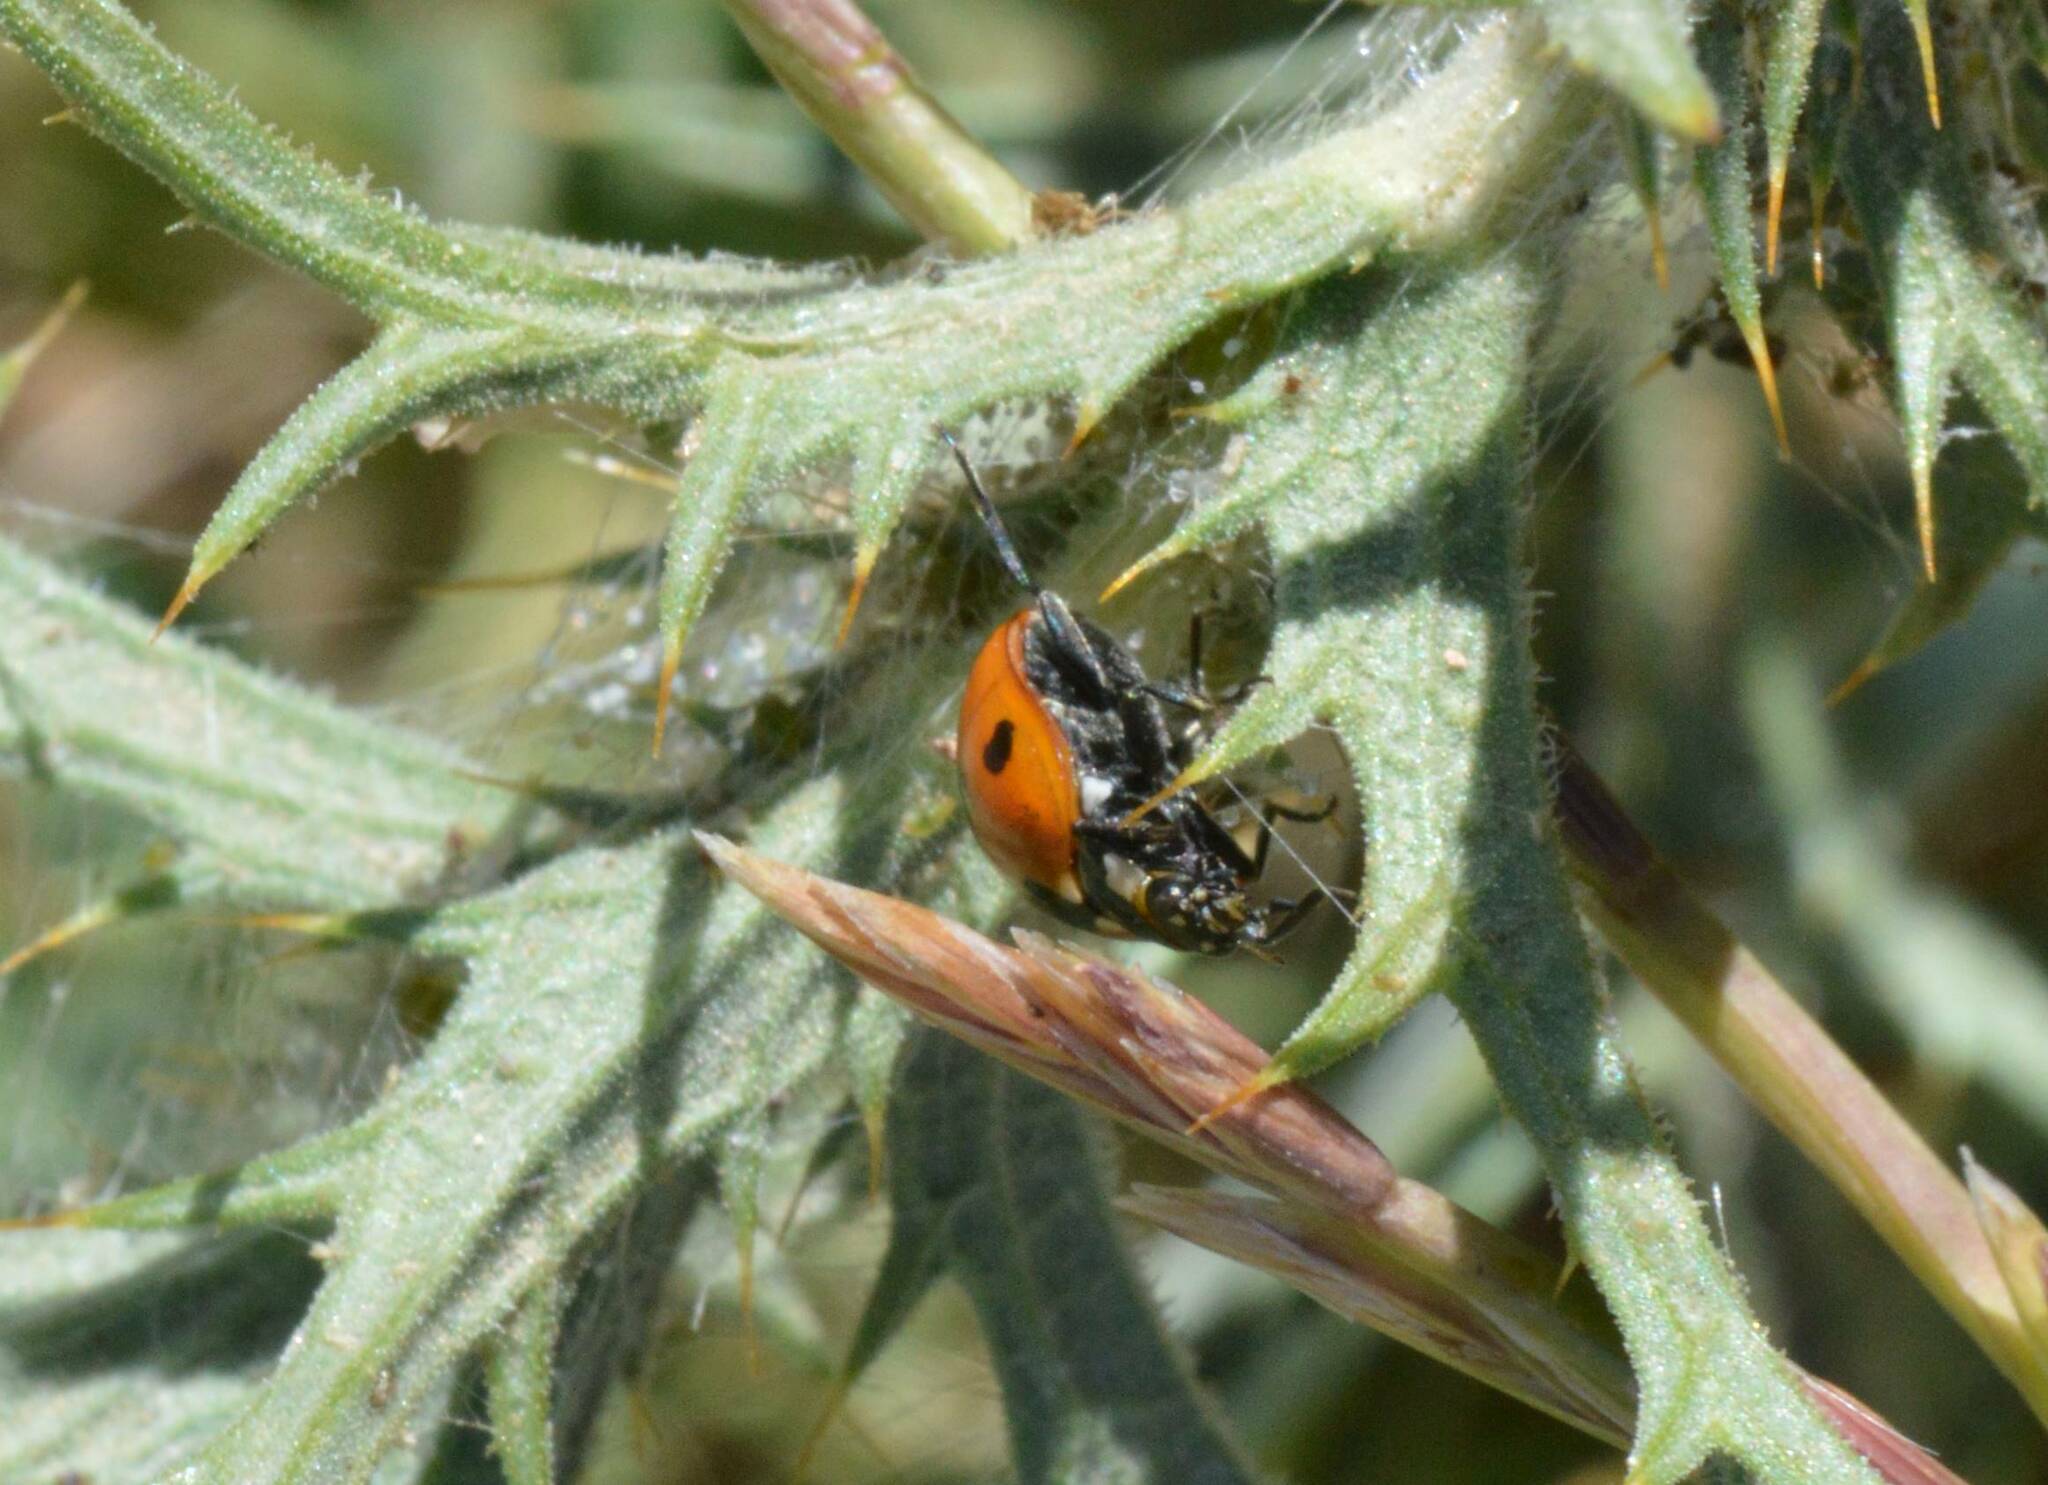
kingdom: Animalia
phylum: Arthropoda
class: Insecta
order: Coleoptera
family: Coccinellidae
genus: Coccinella
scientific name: Coccinella algerica
